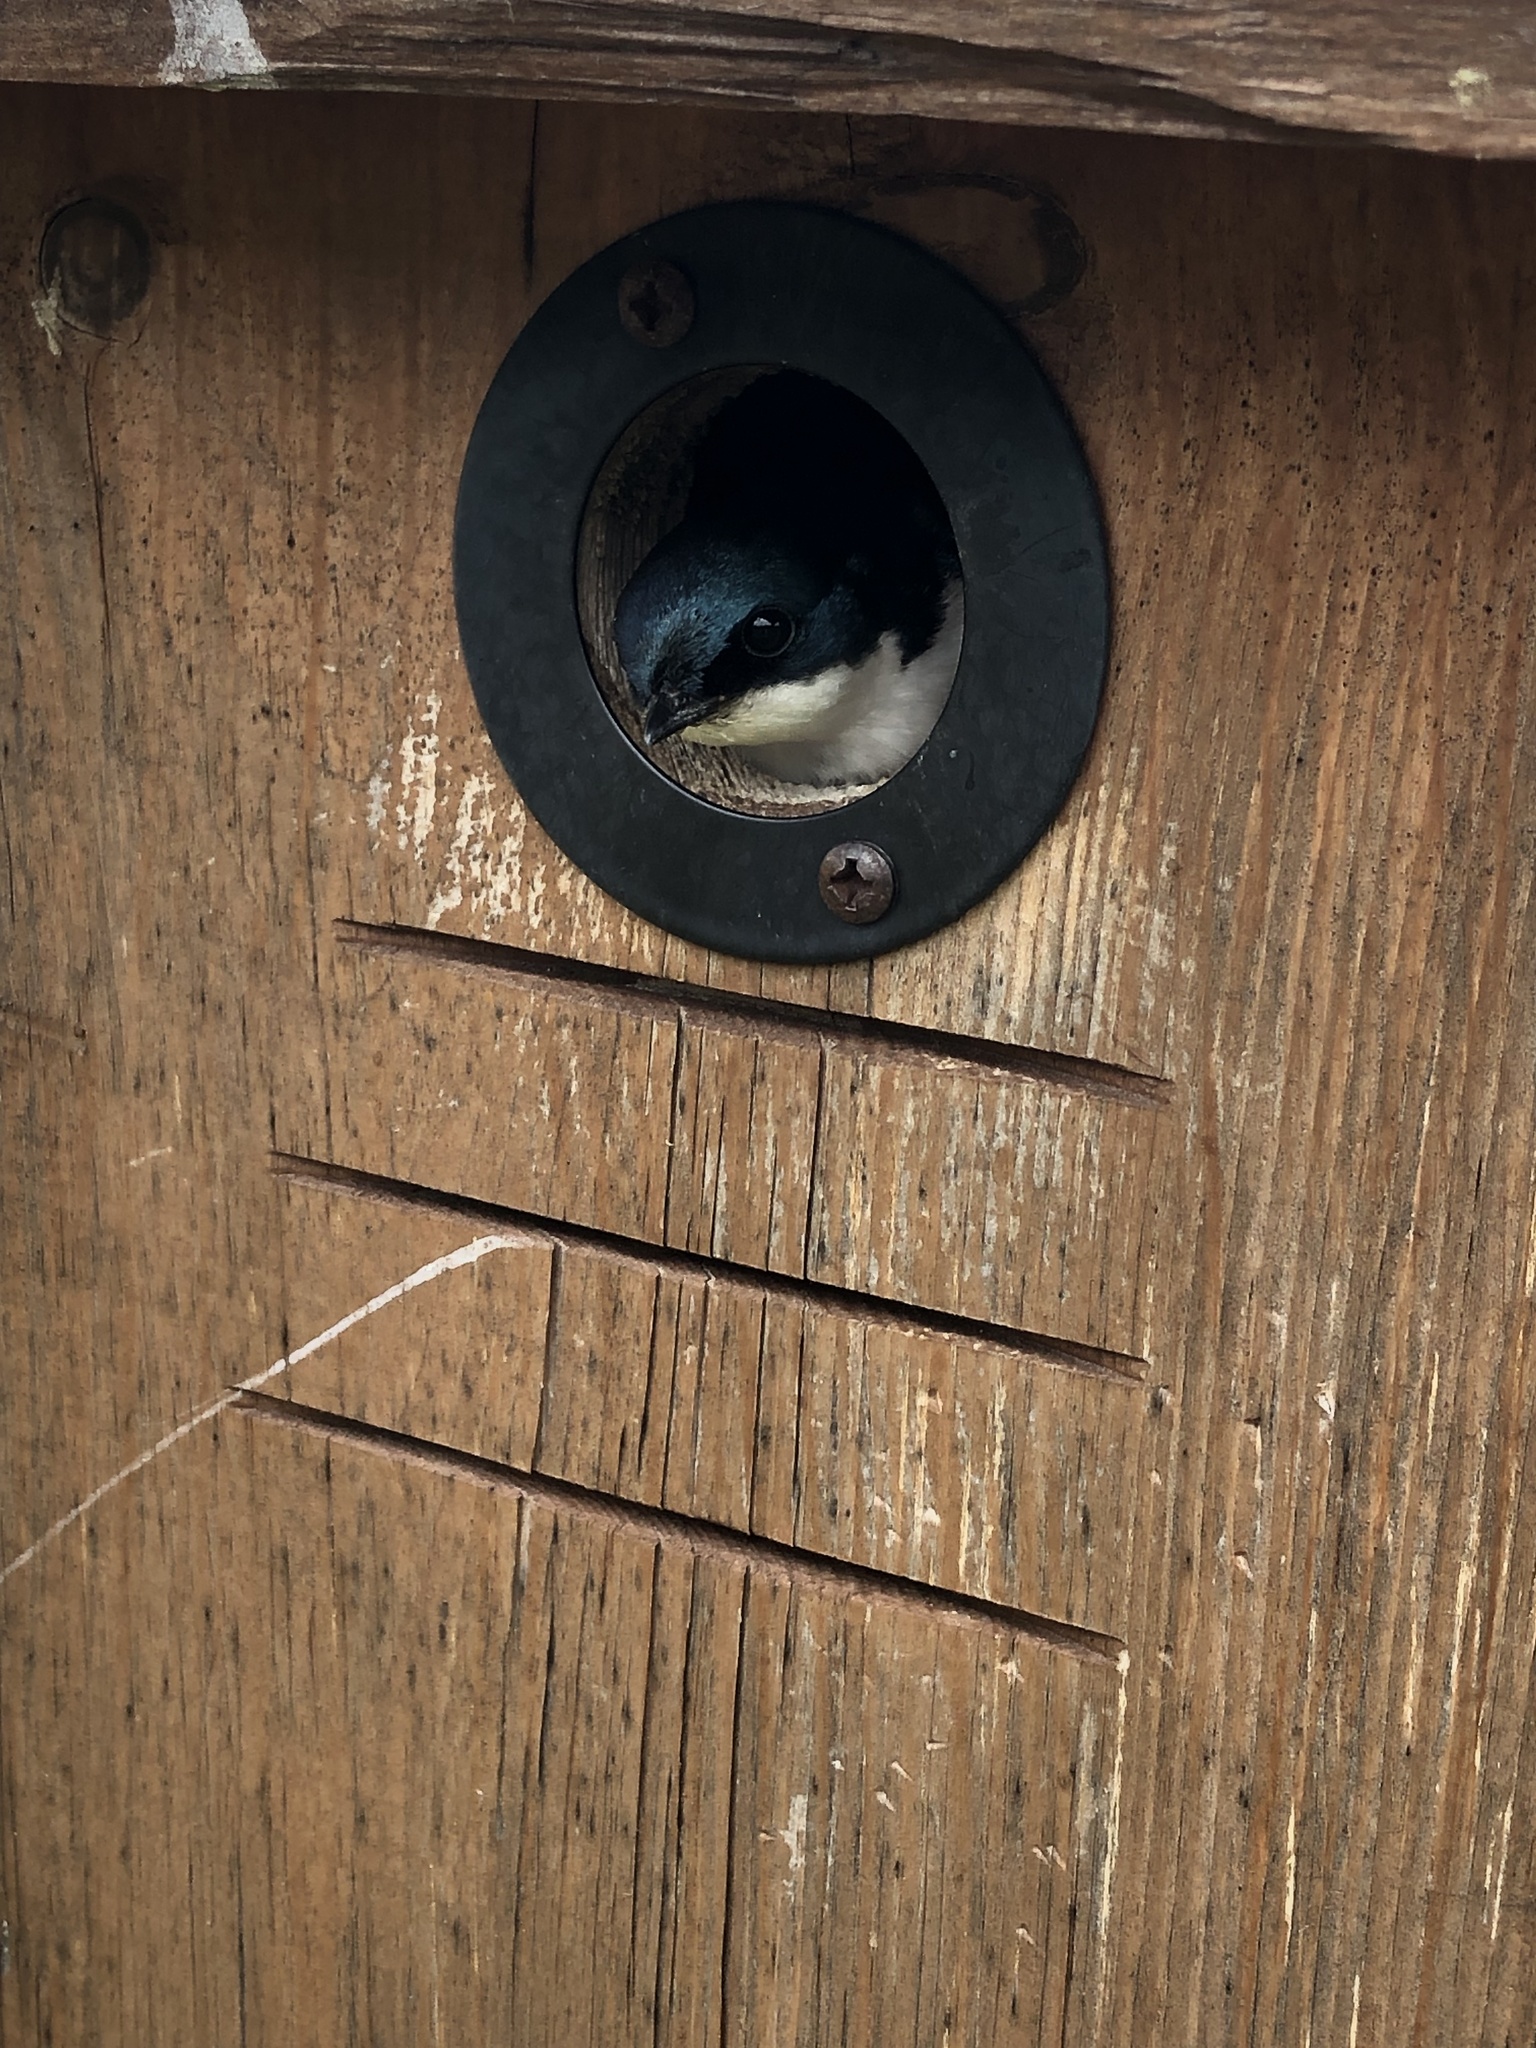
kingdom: Animalia
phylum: Chordata
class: Aves
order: Passeriformes
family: Hirundinidae
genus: Tachycineta
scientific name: Tachycineta bicolor
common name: Tree swallow
